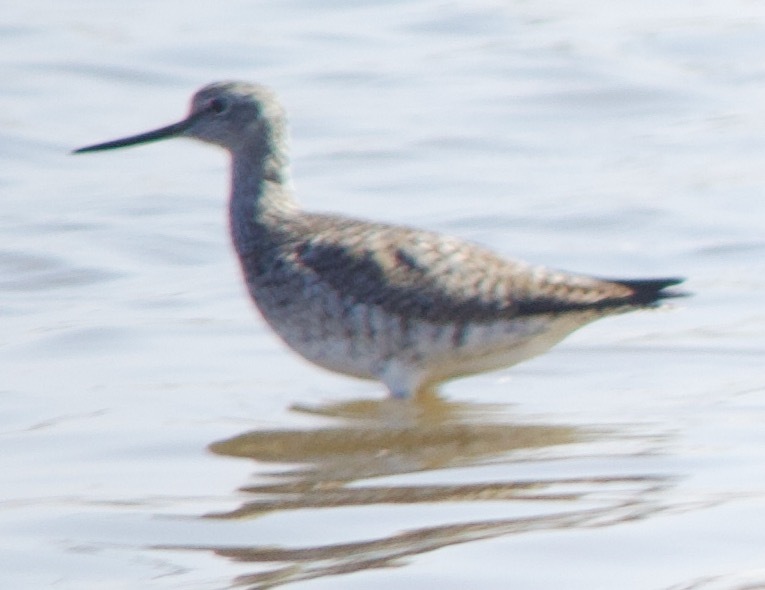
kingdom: Animalia
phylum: Chordata
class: Aves
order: Charadriiformes
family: Scolopacidae
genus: Tringa
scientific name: Tringa melanoleuca
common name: Greater yellowlegs
